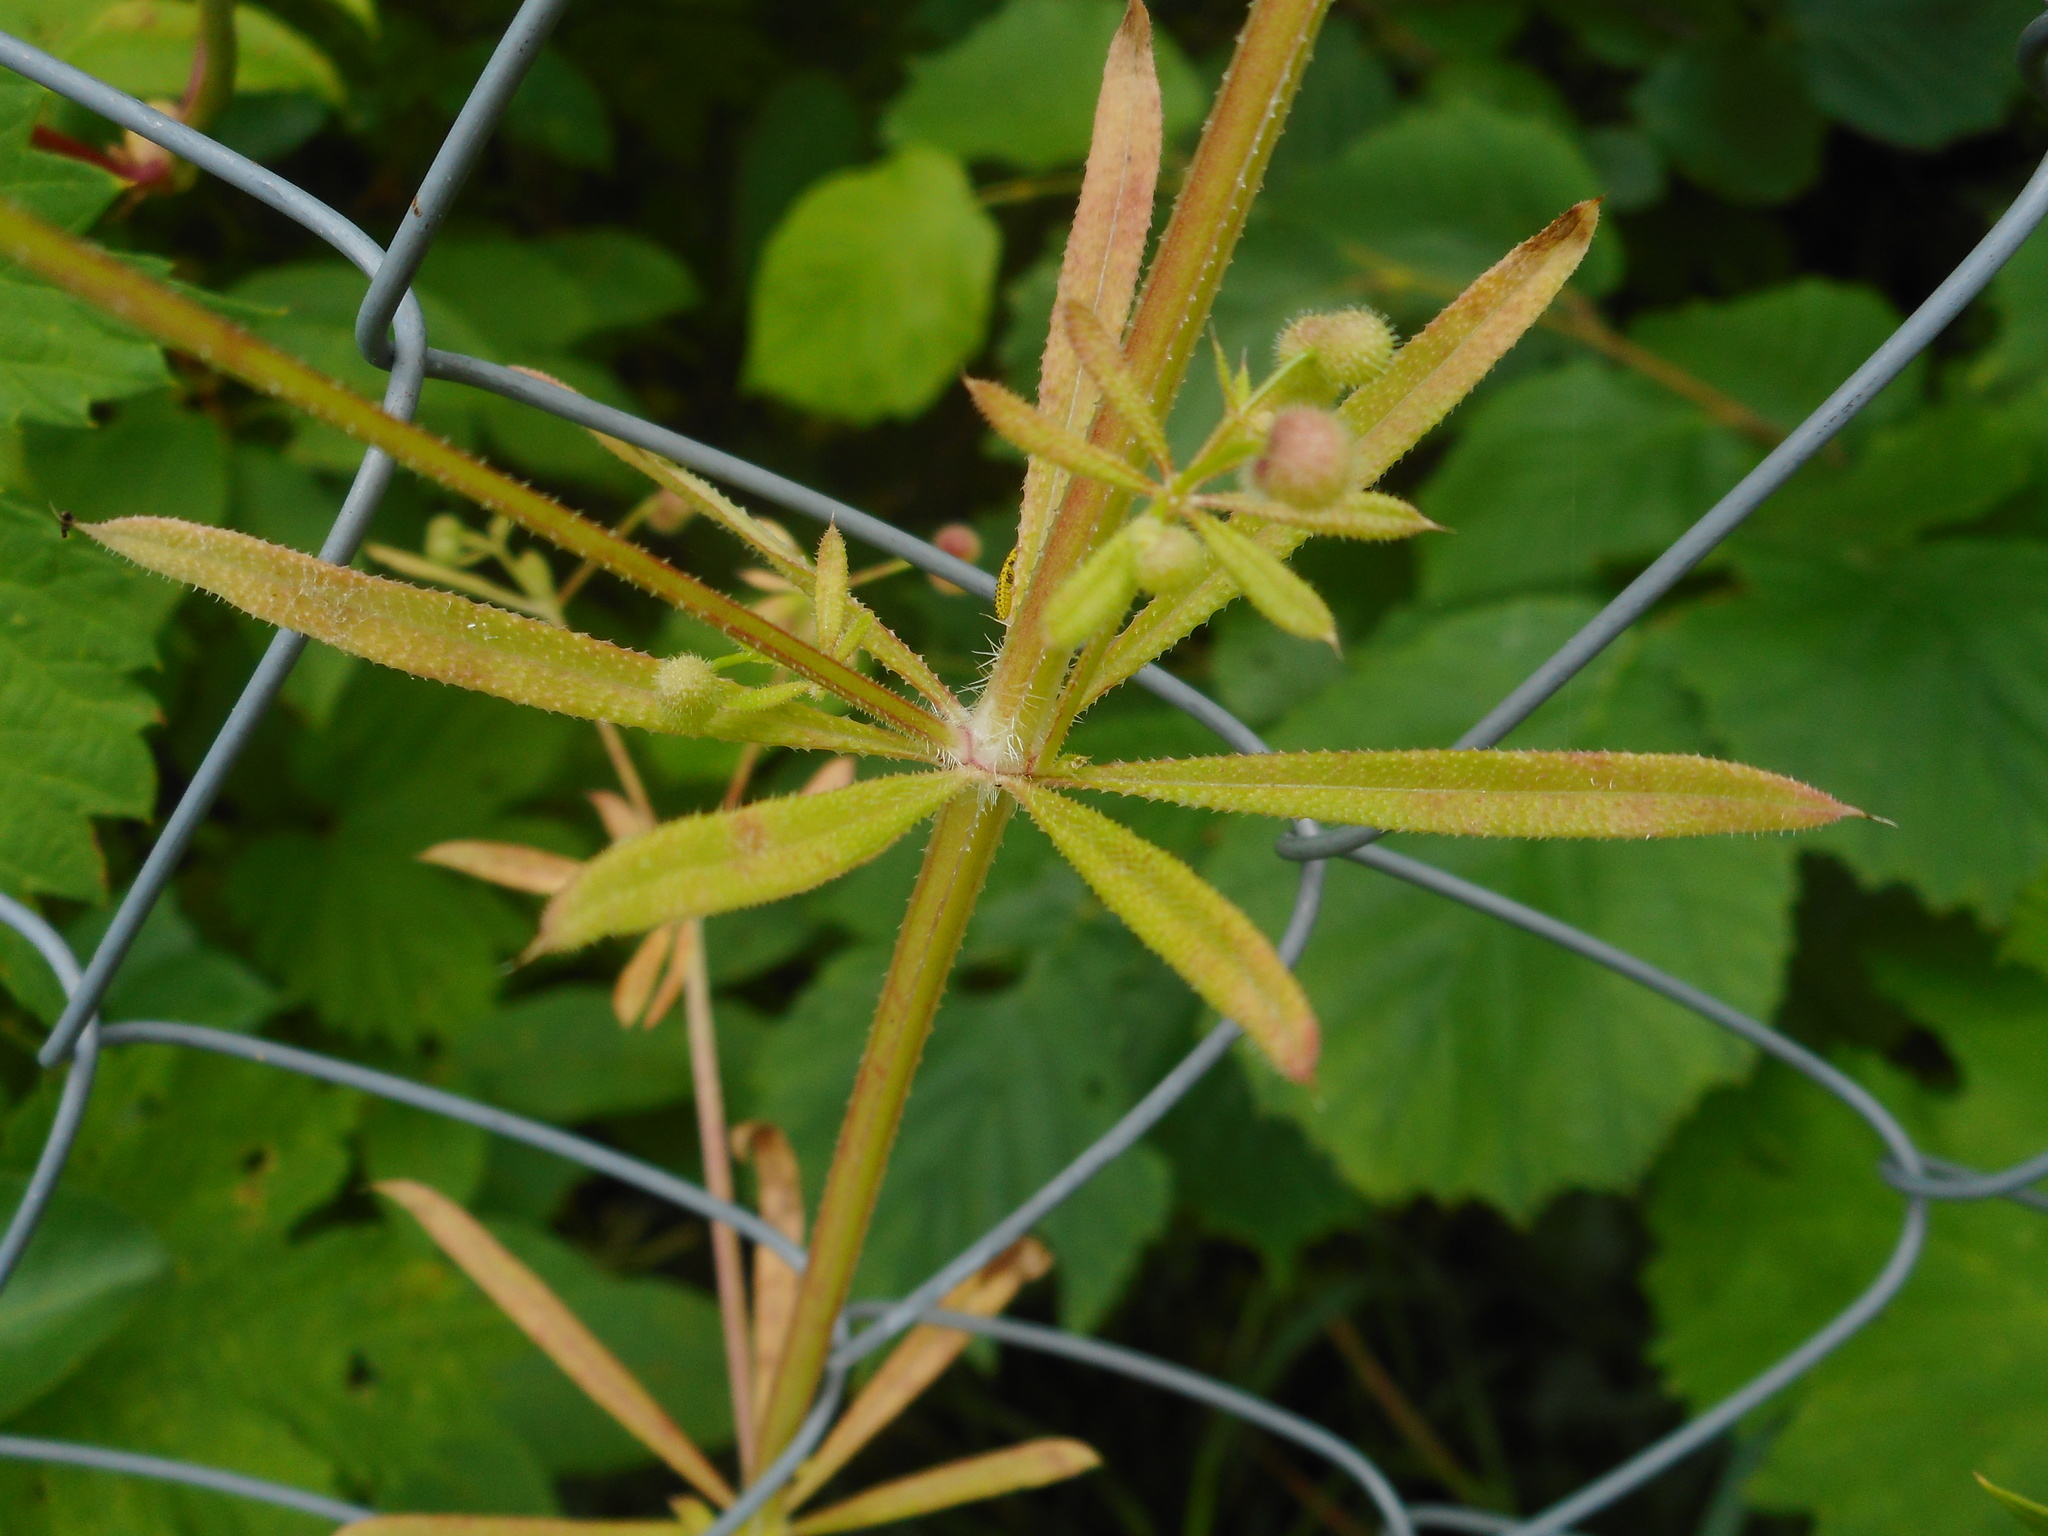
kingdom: Plantae
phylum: Tracheophyta
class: Magnoliopsida
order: Gentianales
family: Rubiaceae
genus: Galium
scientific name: Galium aparine
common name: Cleavers
